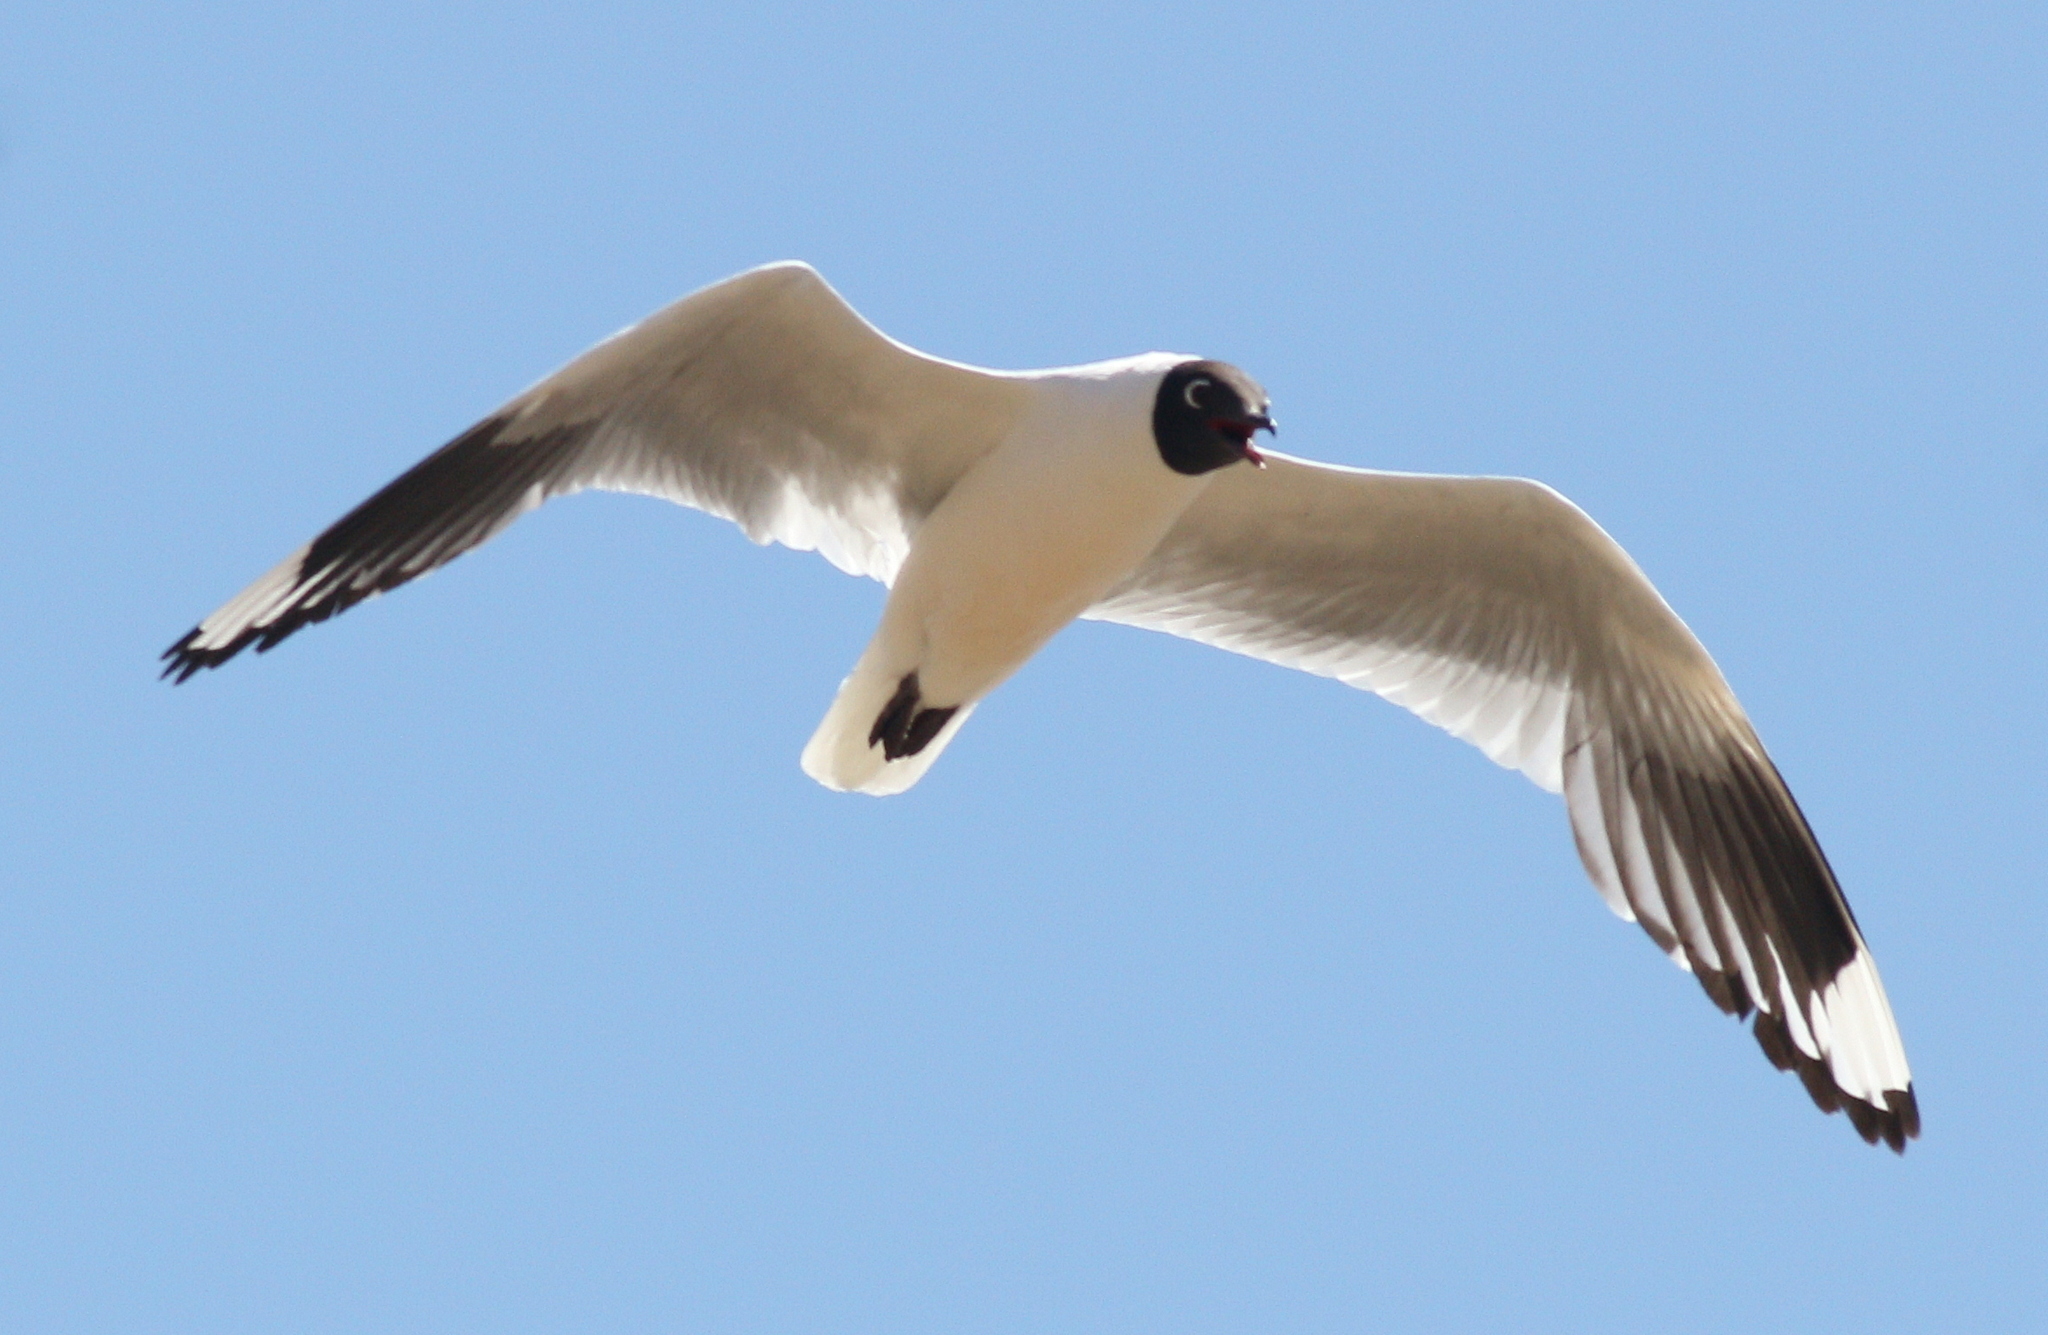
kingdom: Animalia
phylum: Chordata
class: Aves
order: Charadriiformes
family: Laridae
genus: Chroicocephalus
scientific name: Chroicocephalus serranus
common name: Andean gull
